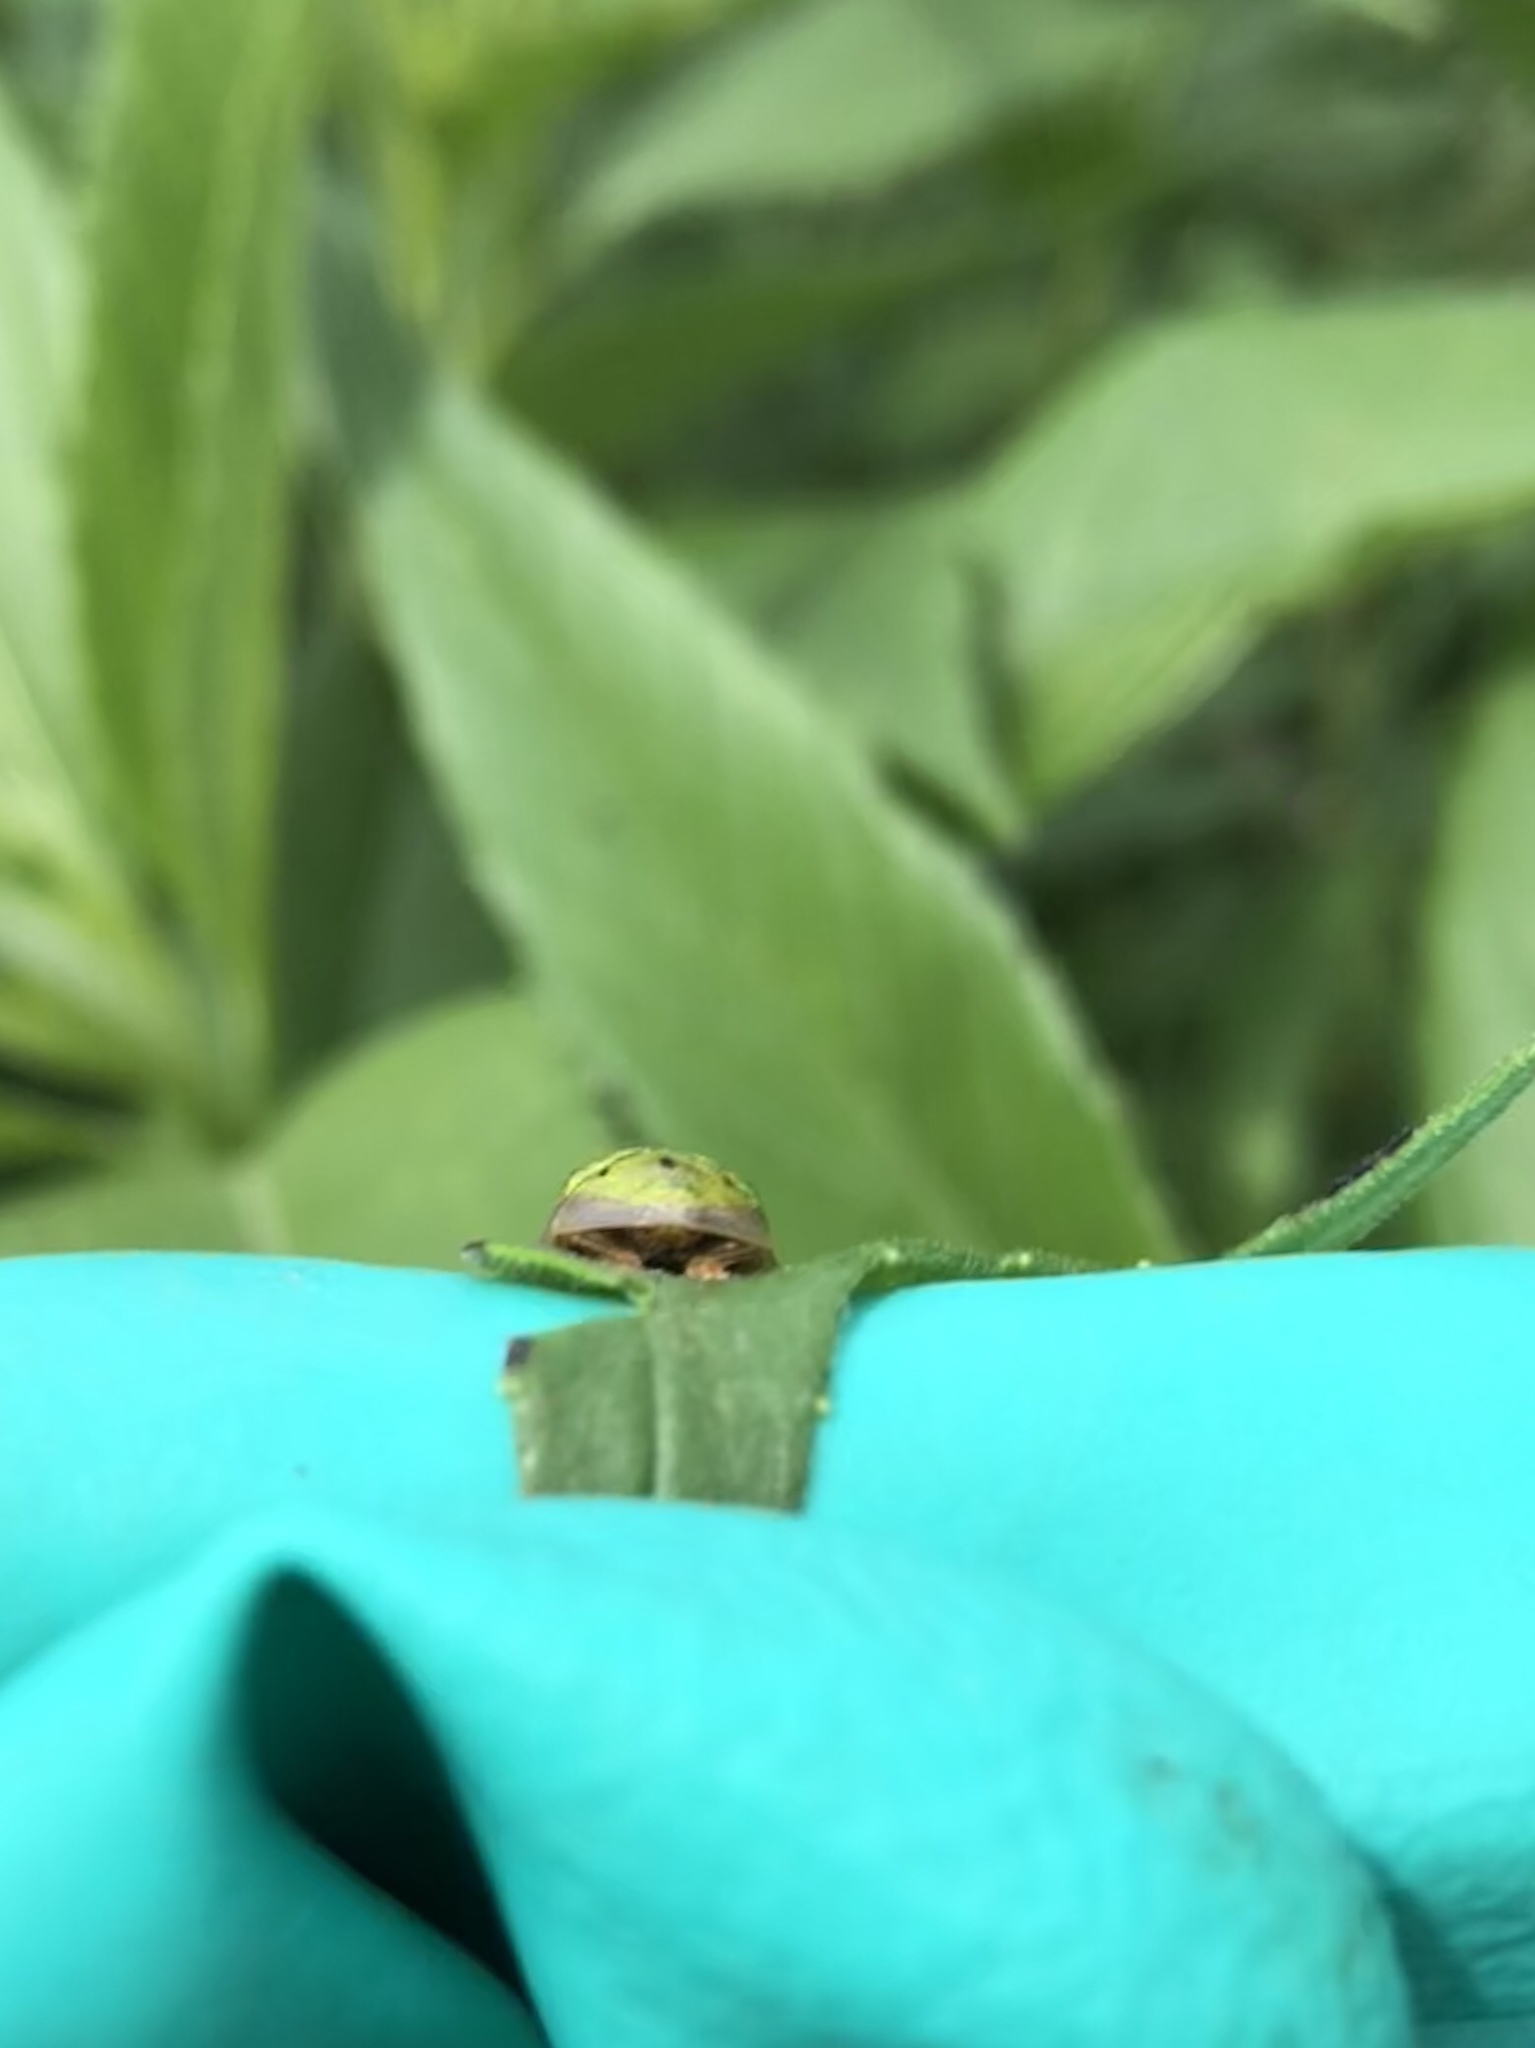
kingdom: Animalia
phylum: Arthropoda
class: Insecta
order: Coleoptera
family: Chrysomelidae
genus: Physonota
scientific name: Physonota helianthi
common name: Sunflower tortoise beetle
